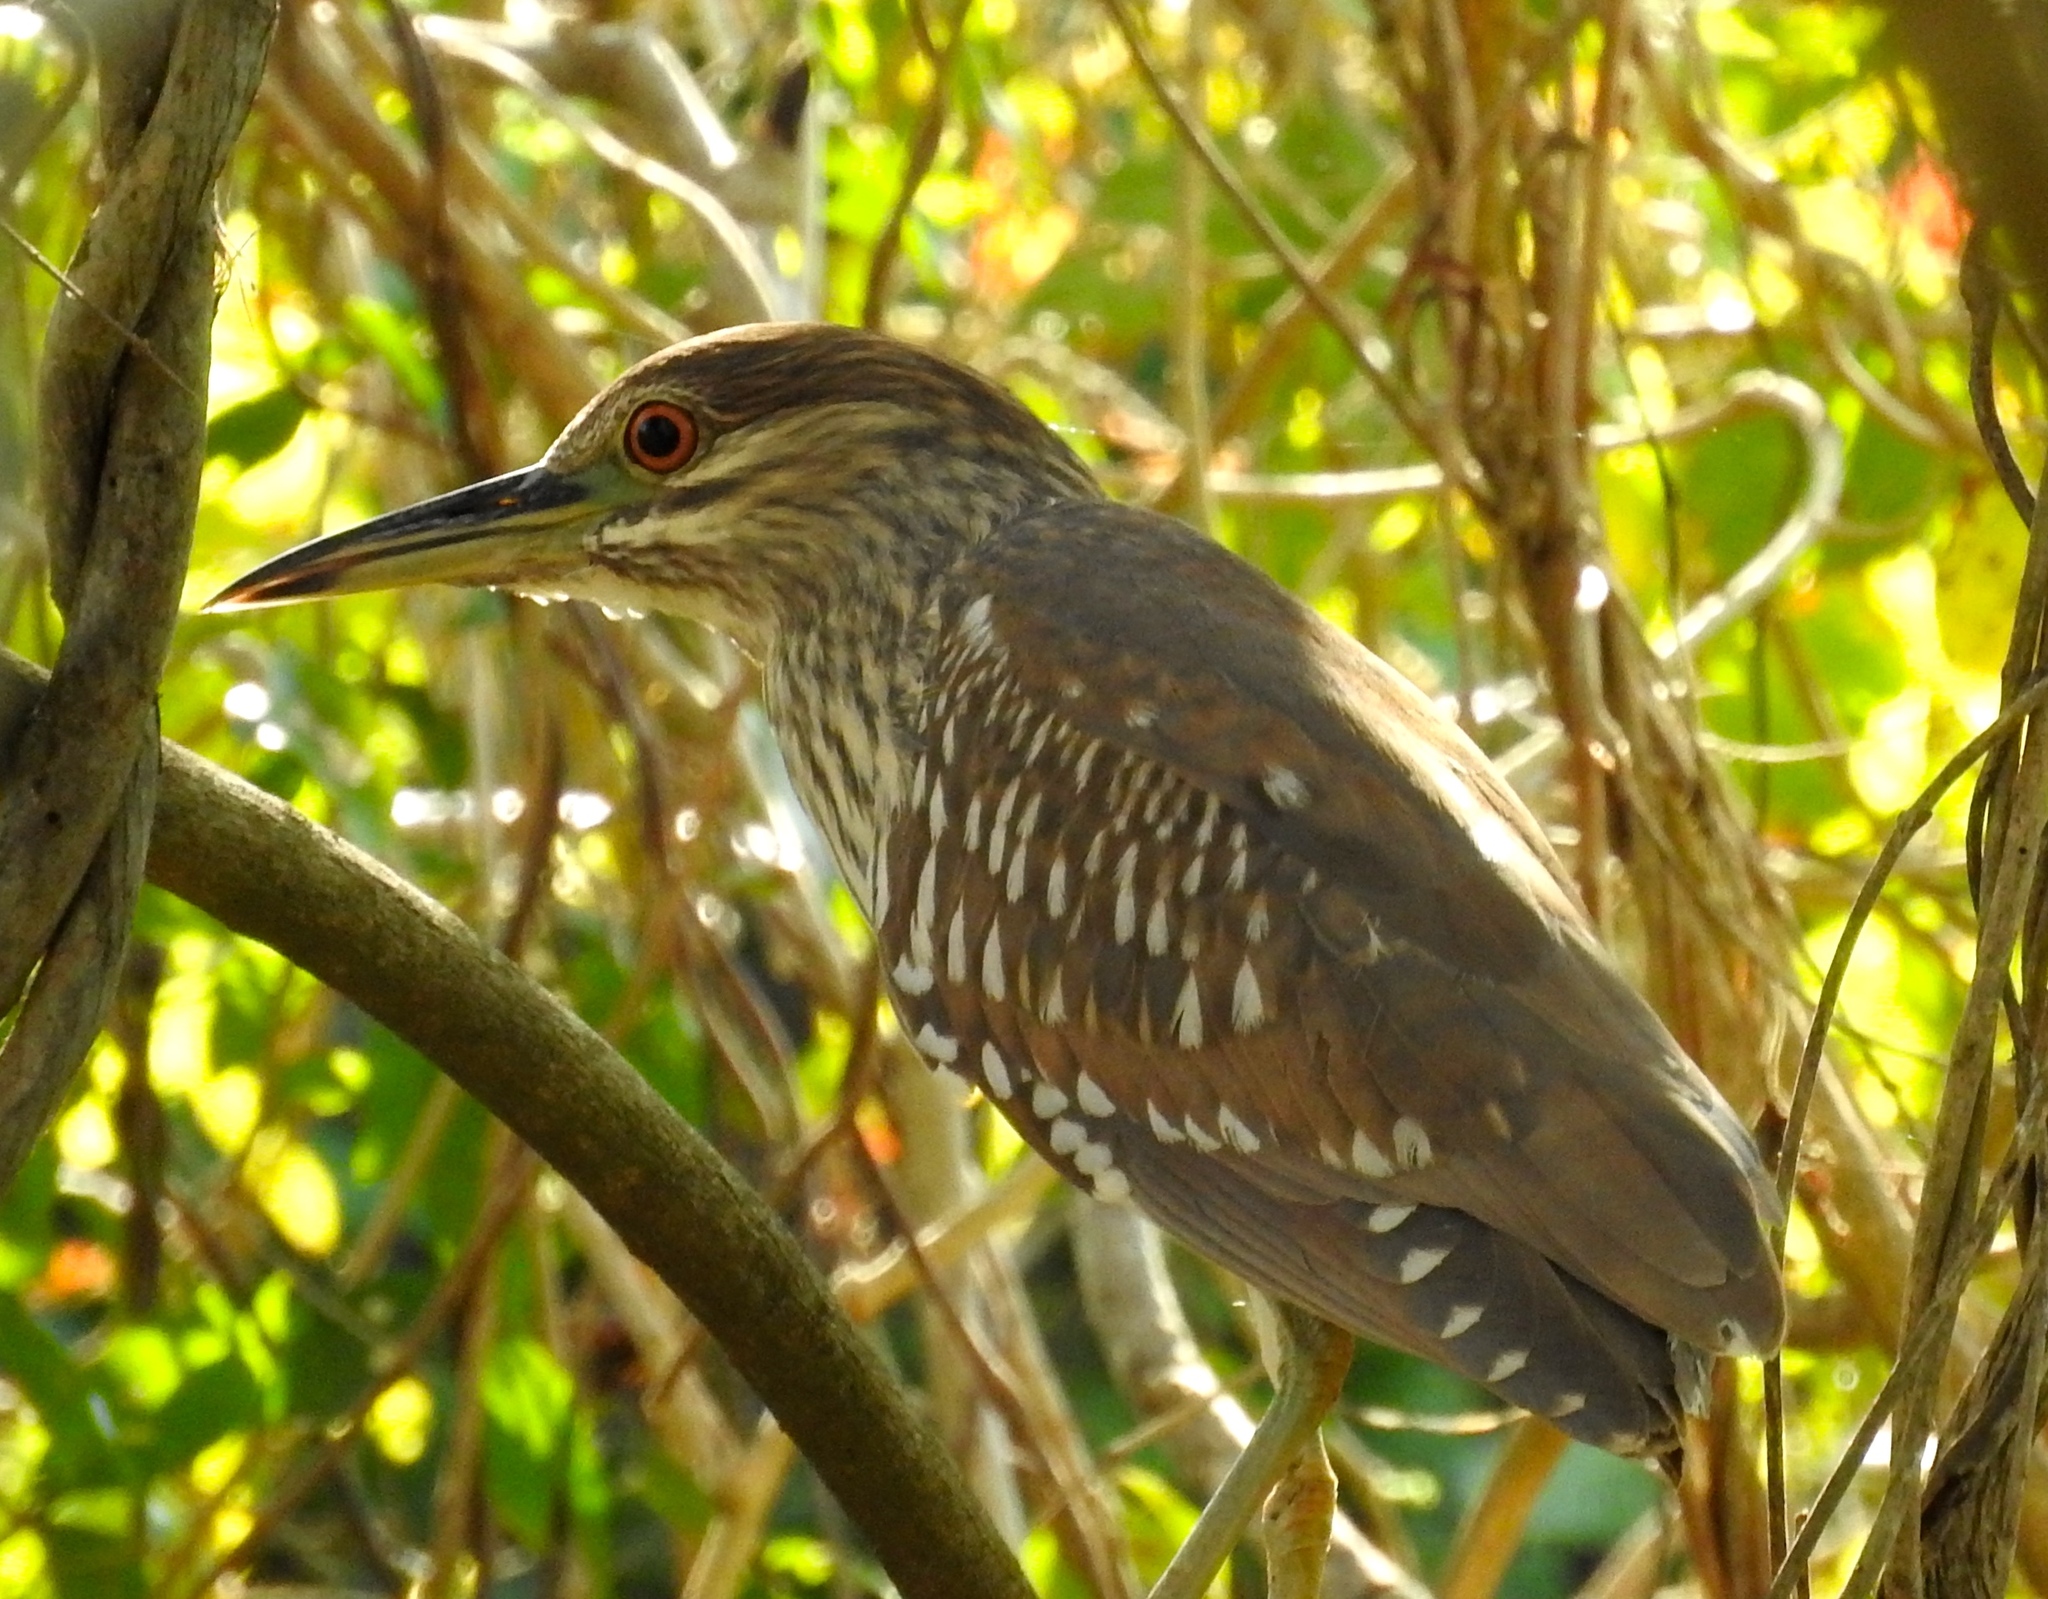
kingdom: Animalia
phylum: Chordata
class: Aves
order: Pelecaniformes
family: Ardeidae
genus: Nycticorax
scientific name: Nycticorax nycticorax
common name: Black-crowned night heron
